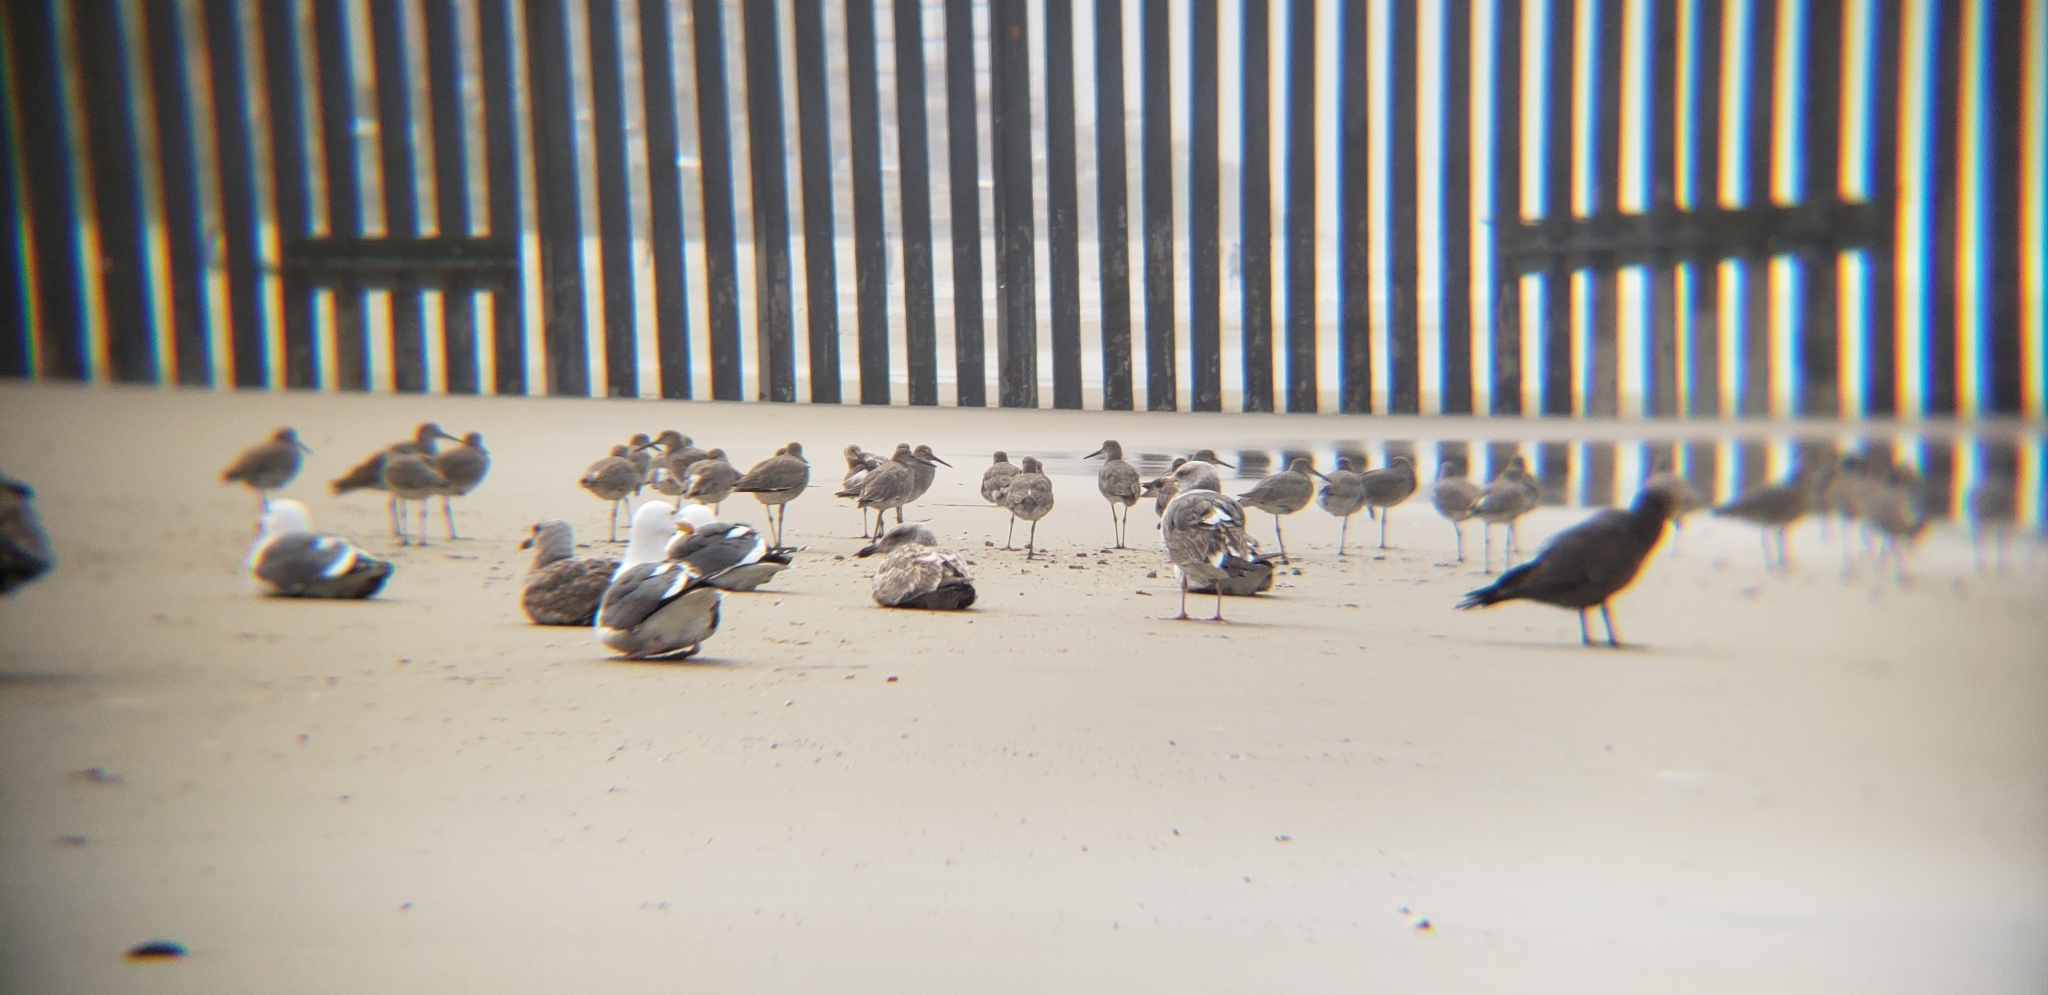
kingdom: Animalia
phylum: Chordata
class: Aves
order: Charadriiformes
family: Laridae
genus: Larus
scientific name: Larus occidentalis
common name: Western gull
